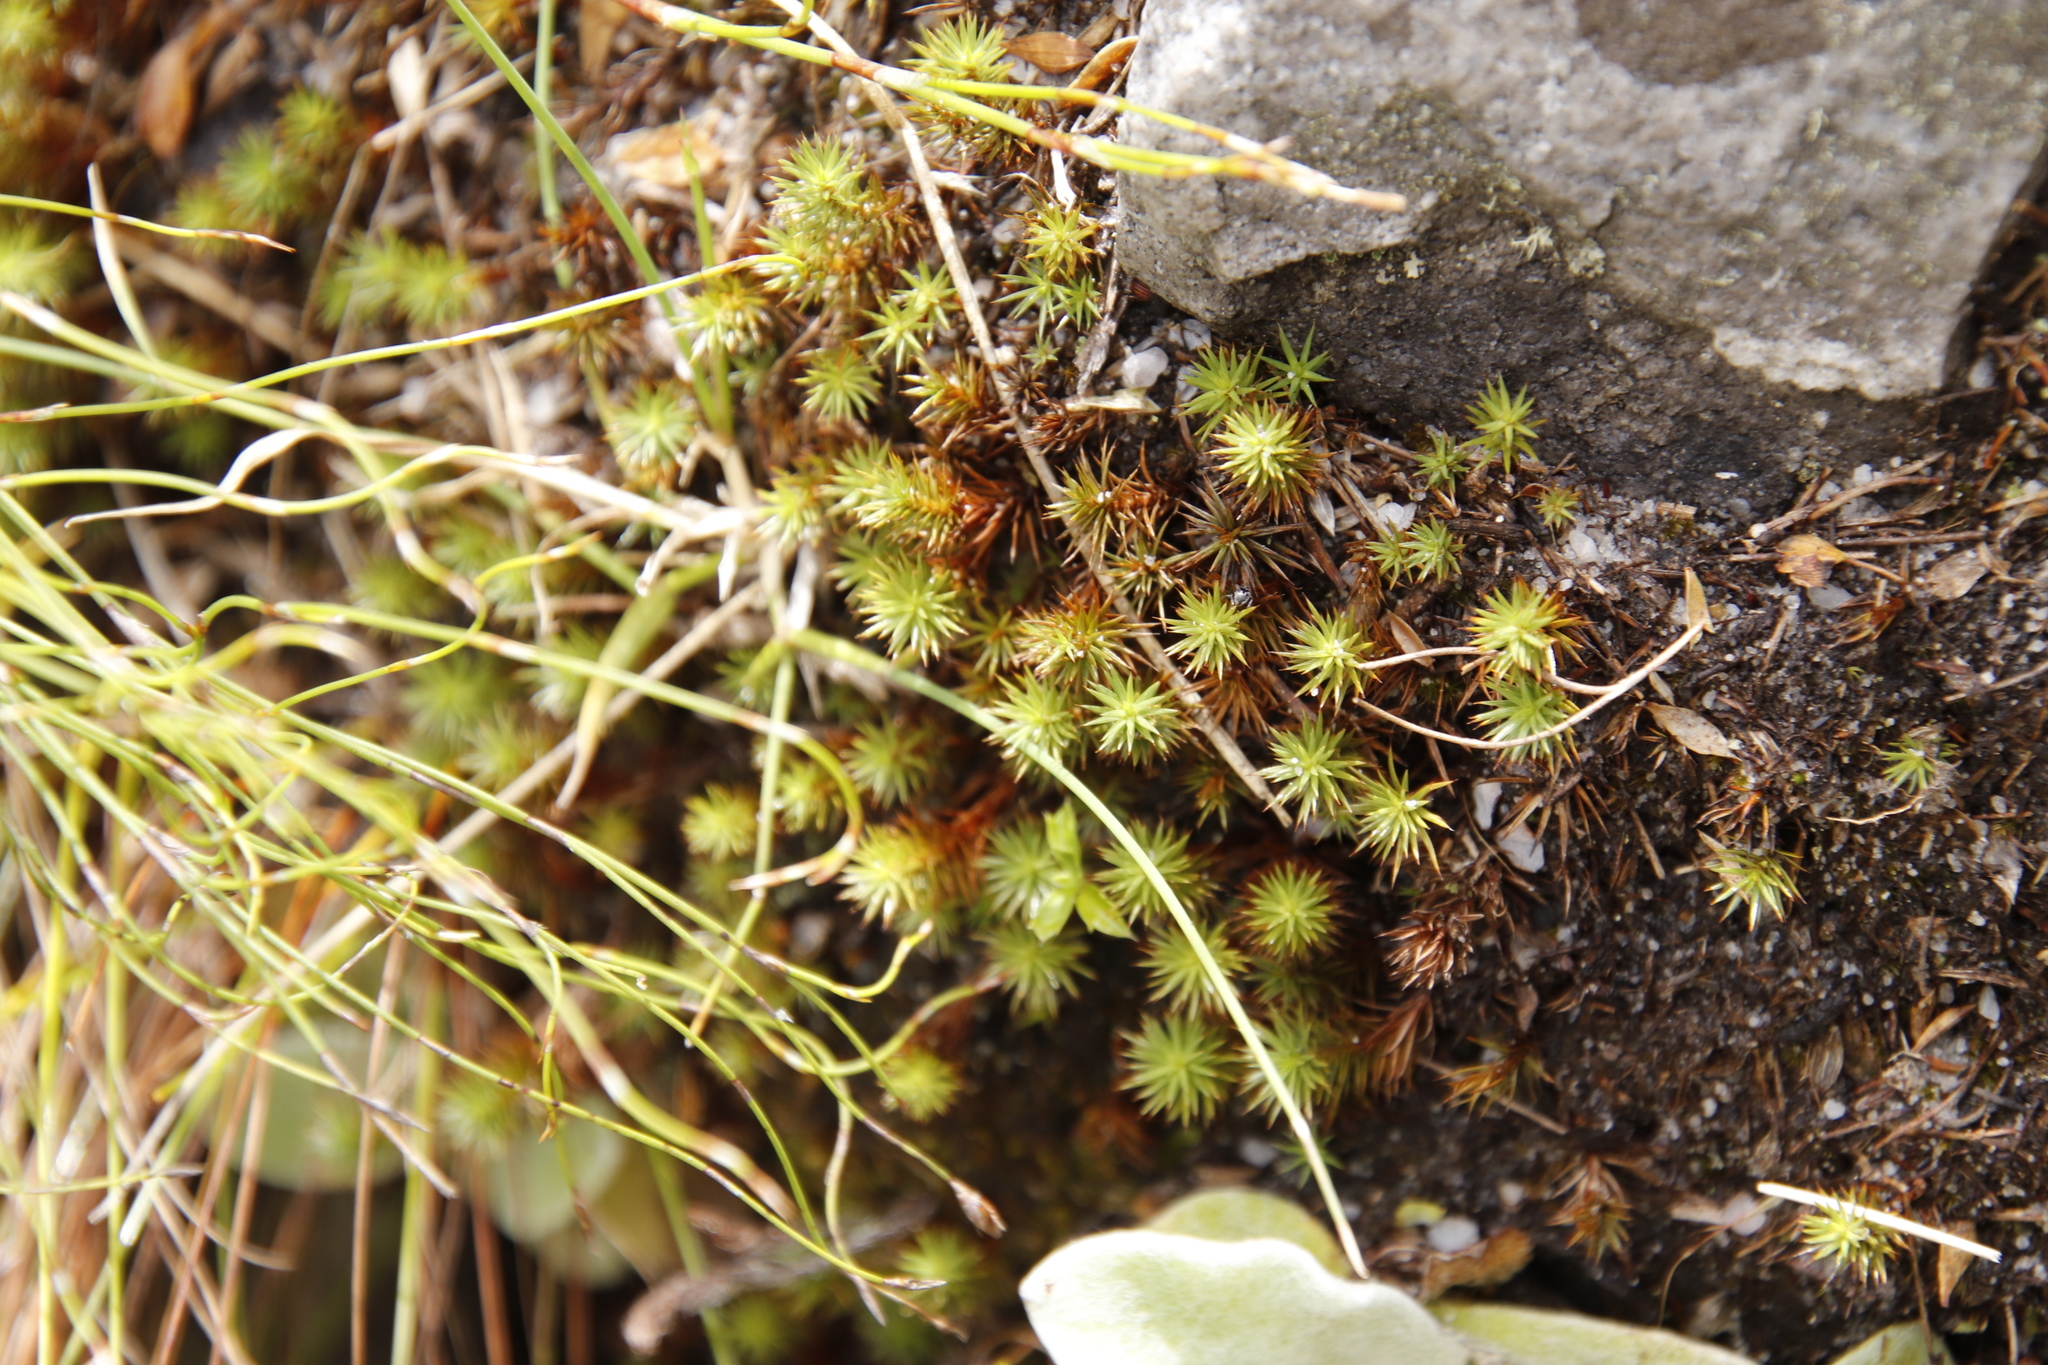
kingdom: Plantae
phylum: Bryophyta
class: Polytrichopsida
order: Polytrichales
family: Polytrichaceae
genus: Polytrichum
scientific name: Polytrichum juniperinum
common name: Juniper haircap moss
